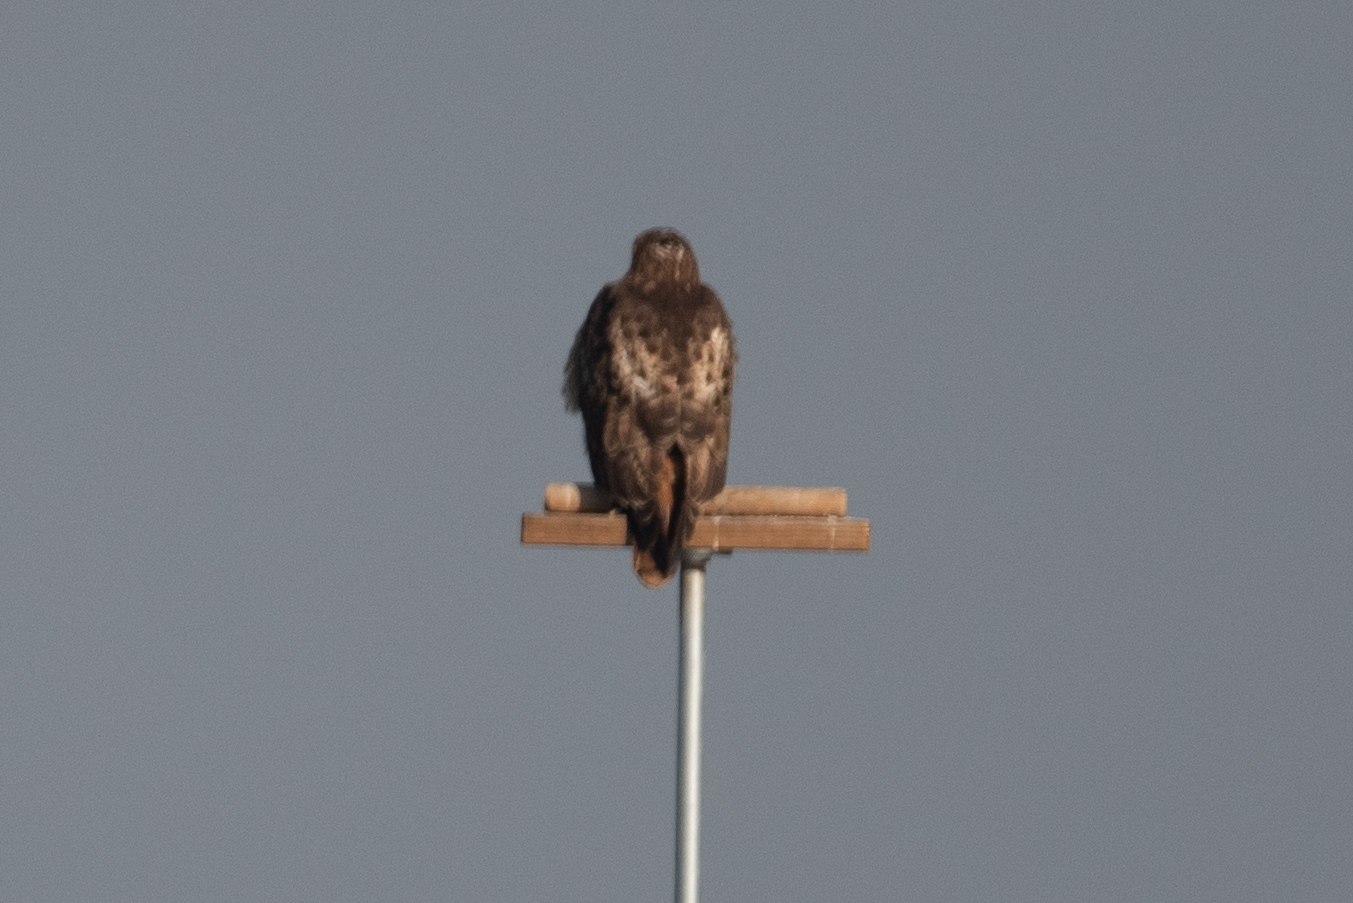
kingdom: Animalia
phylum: Chordata
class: Aves
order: Accipitriformes
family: Accipitridae
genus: Buteo
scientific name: Buteo jamaicensis
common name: Red-tailed hawk
